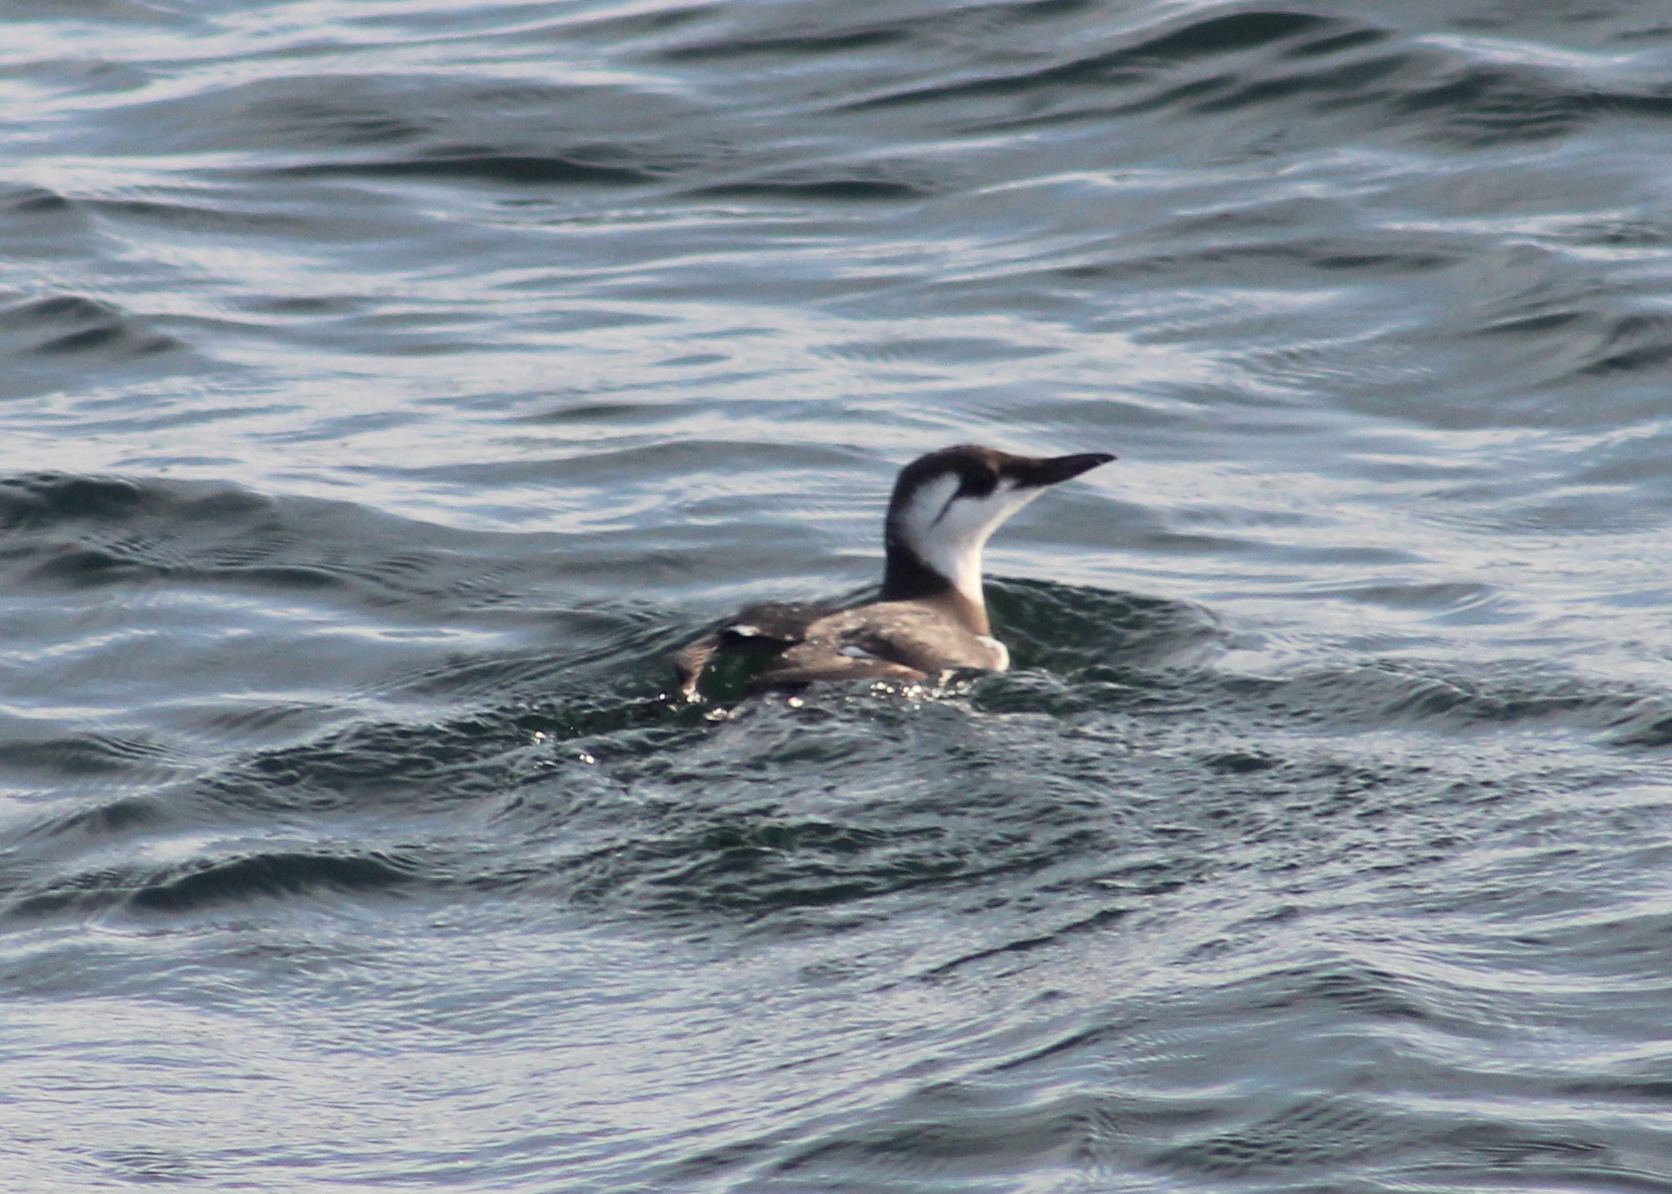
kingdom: Animalia
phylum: Chordata
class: Aves
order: Charadriiformes
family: Alcidae
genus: Uria
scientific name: Uria aalge
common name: Common murre
